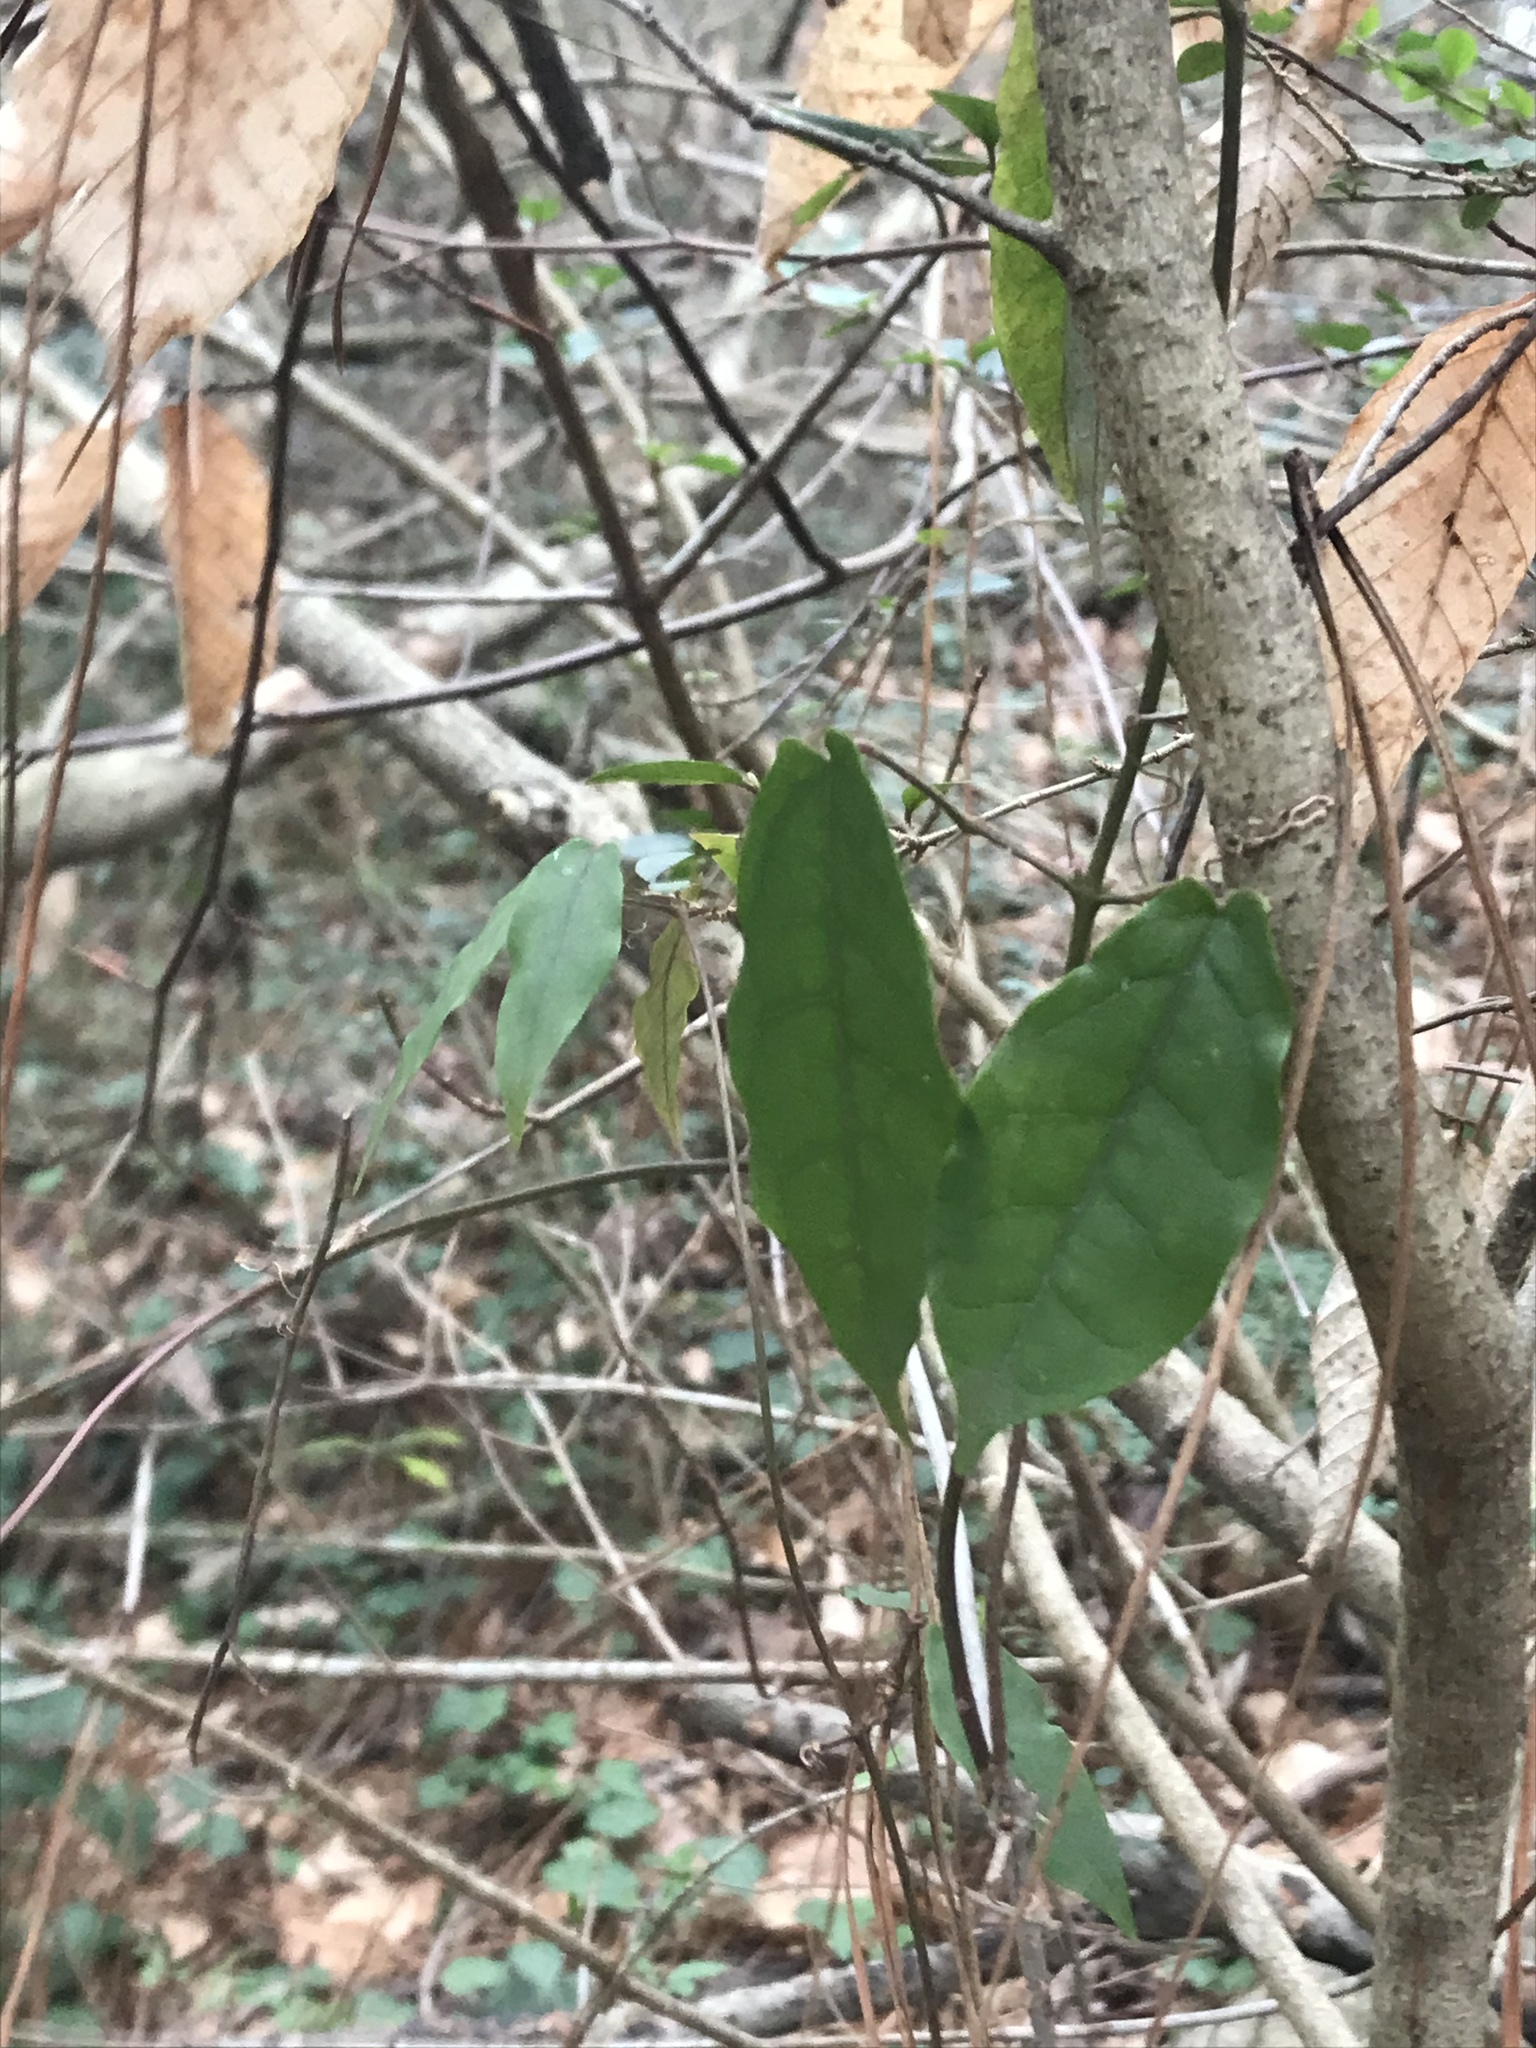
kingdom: Plantae
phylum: Tracheophyta
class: Magnoliopsida
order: Lamiales
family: Bignoniaceae
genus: Bignonia
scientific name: Bignonia capreolata
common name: Crossvine
